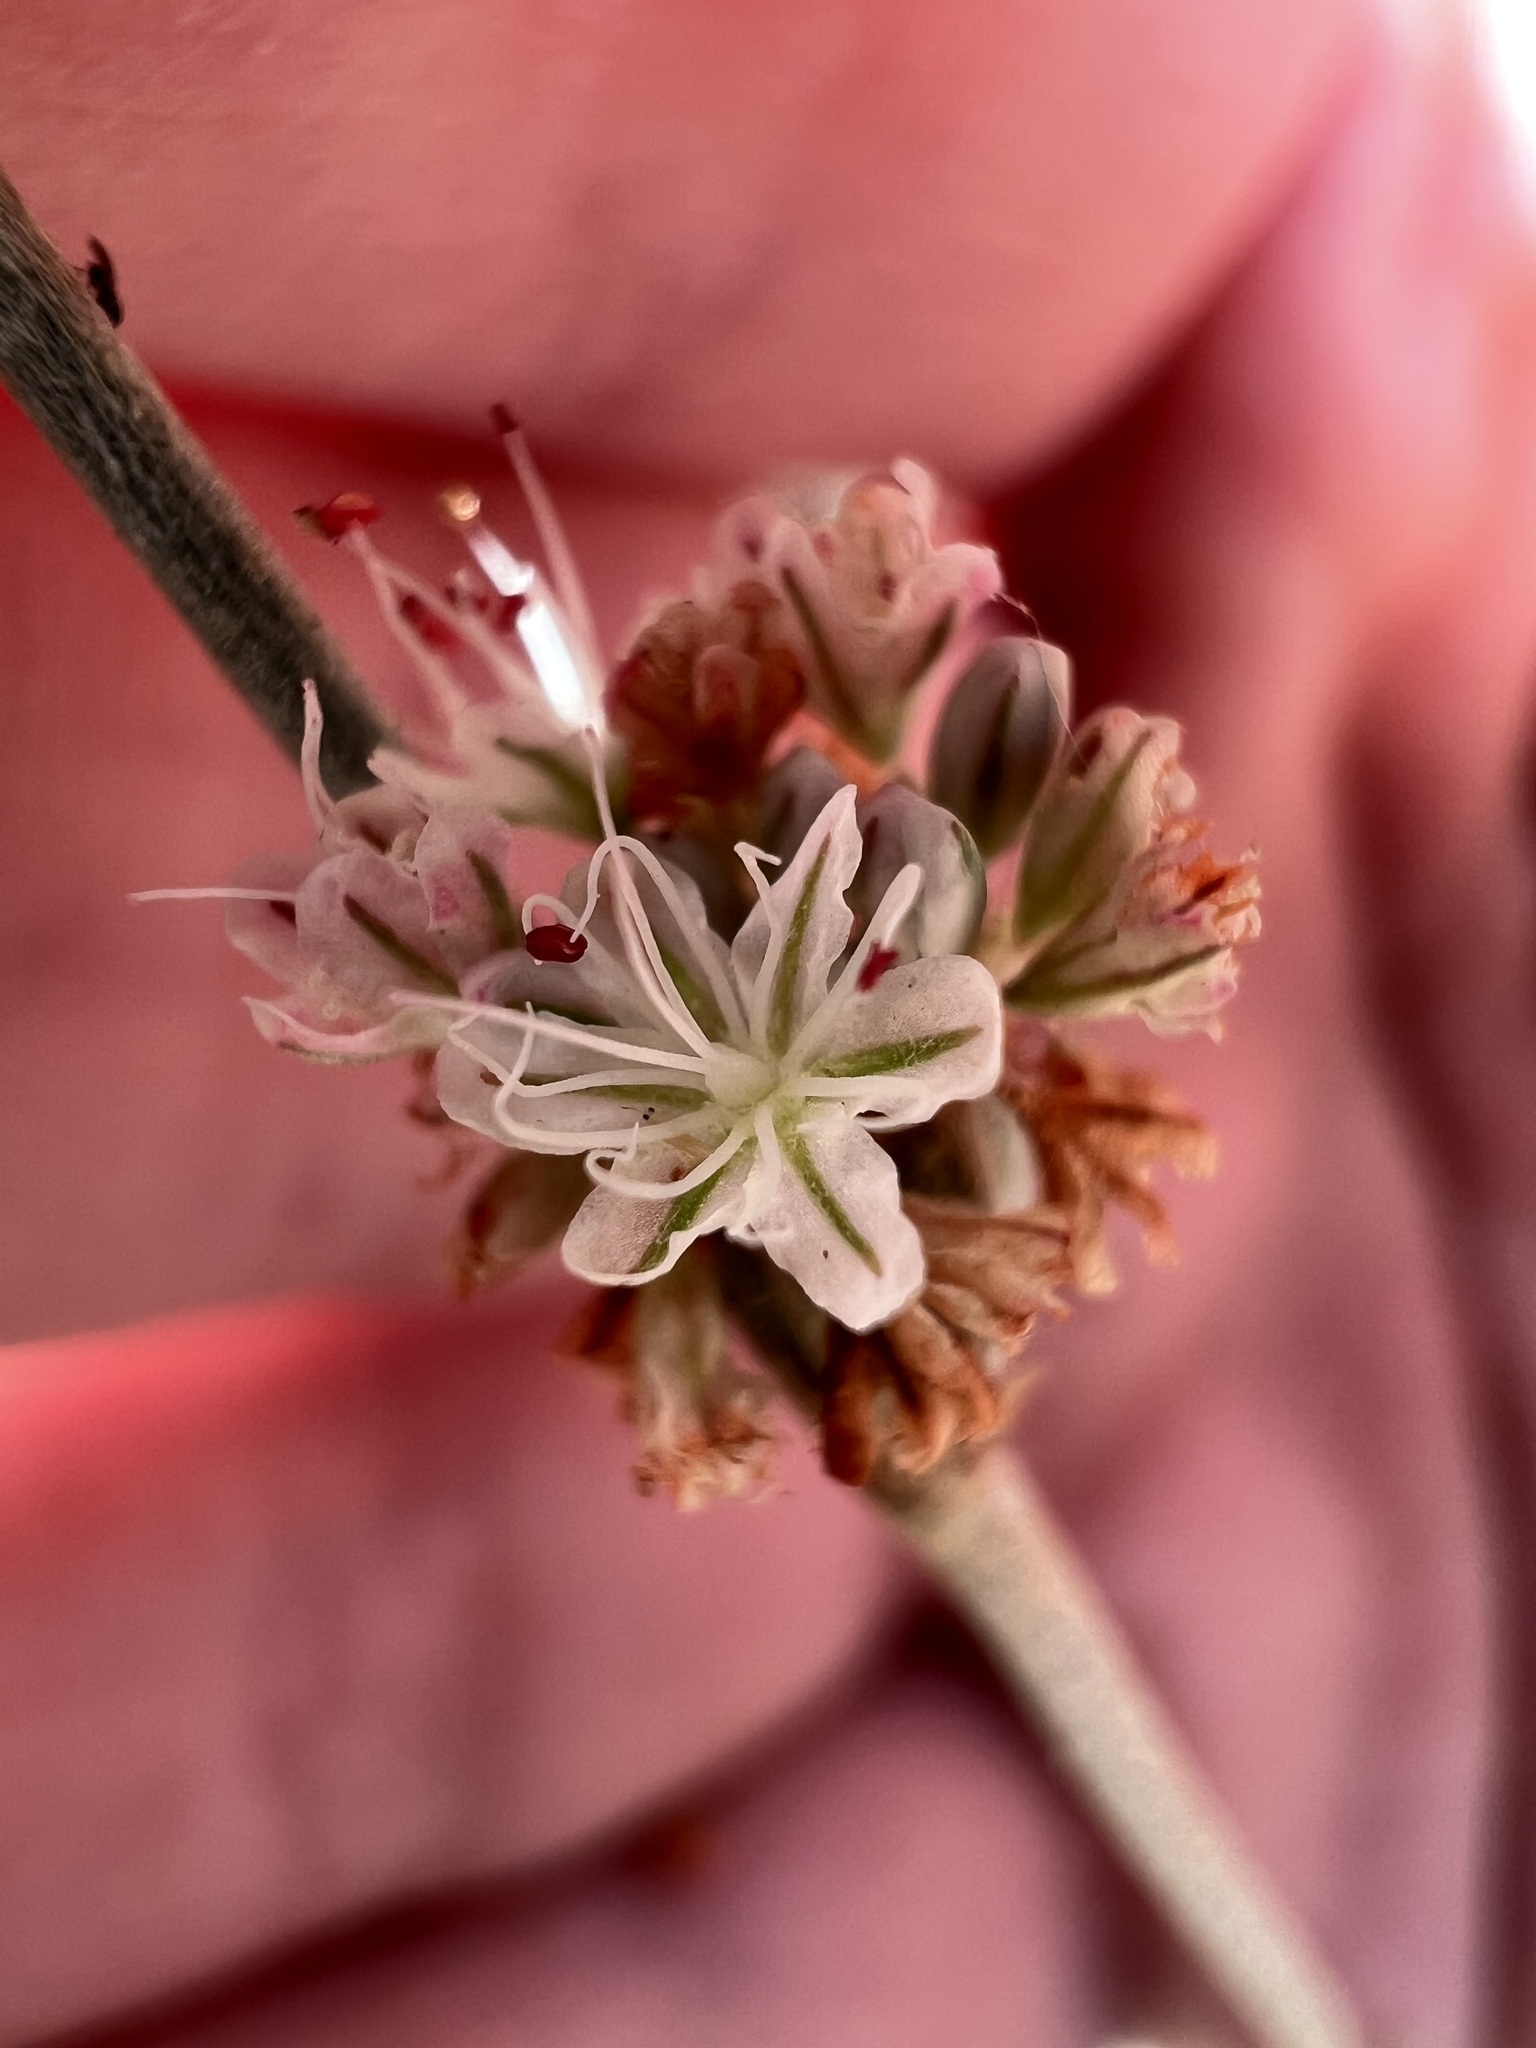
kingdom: Plantae
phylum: Tracheophyta
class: Magnoliopsida
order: Caryophyllales
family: Polygonaceae
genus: Eriogonum
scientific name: Eriogonum elongatum
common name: Long-stem wild buckwheat
